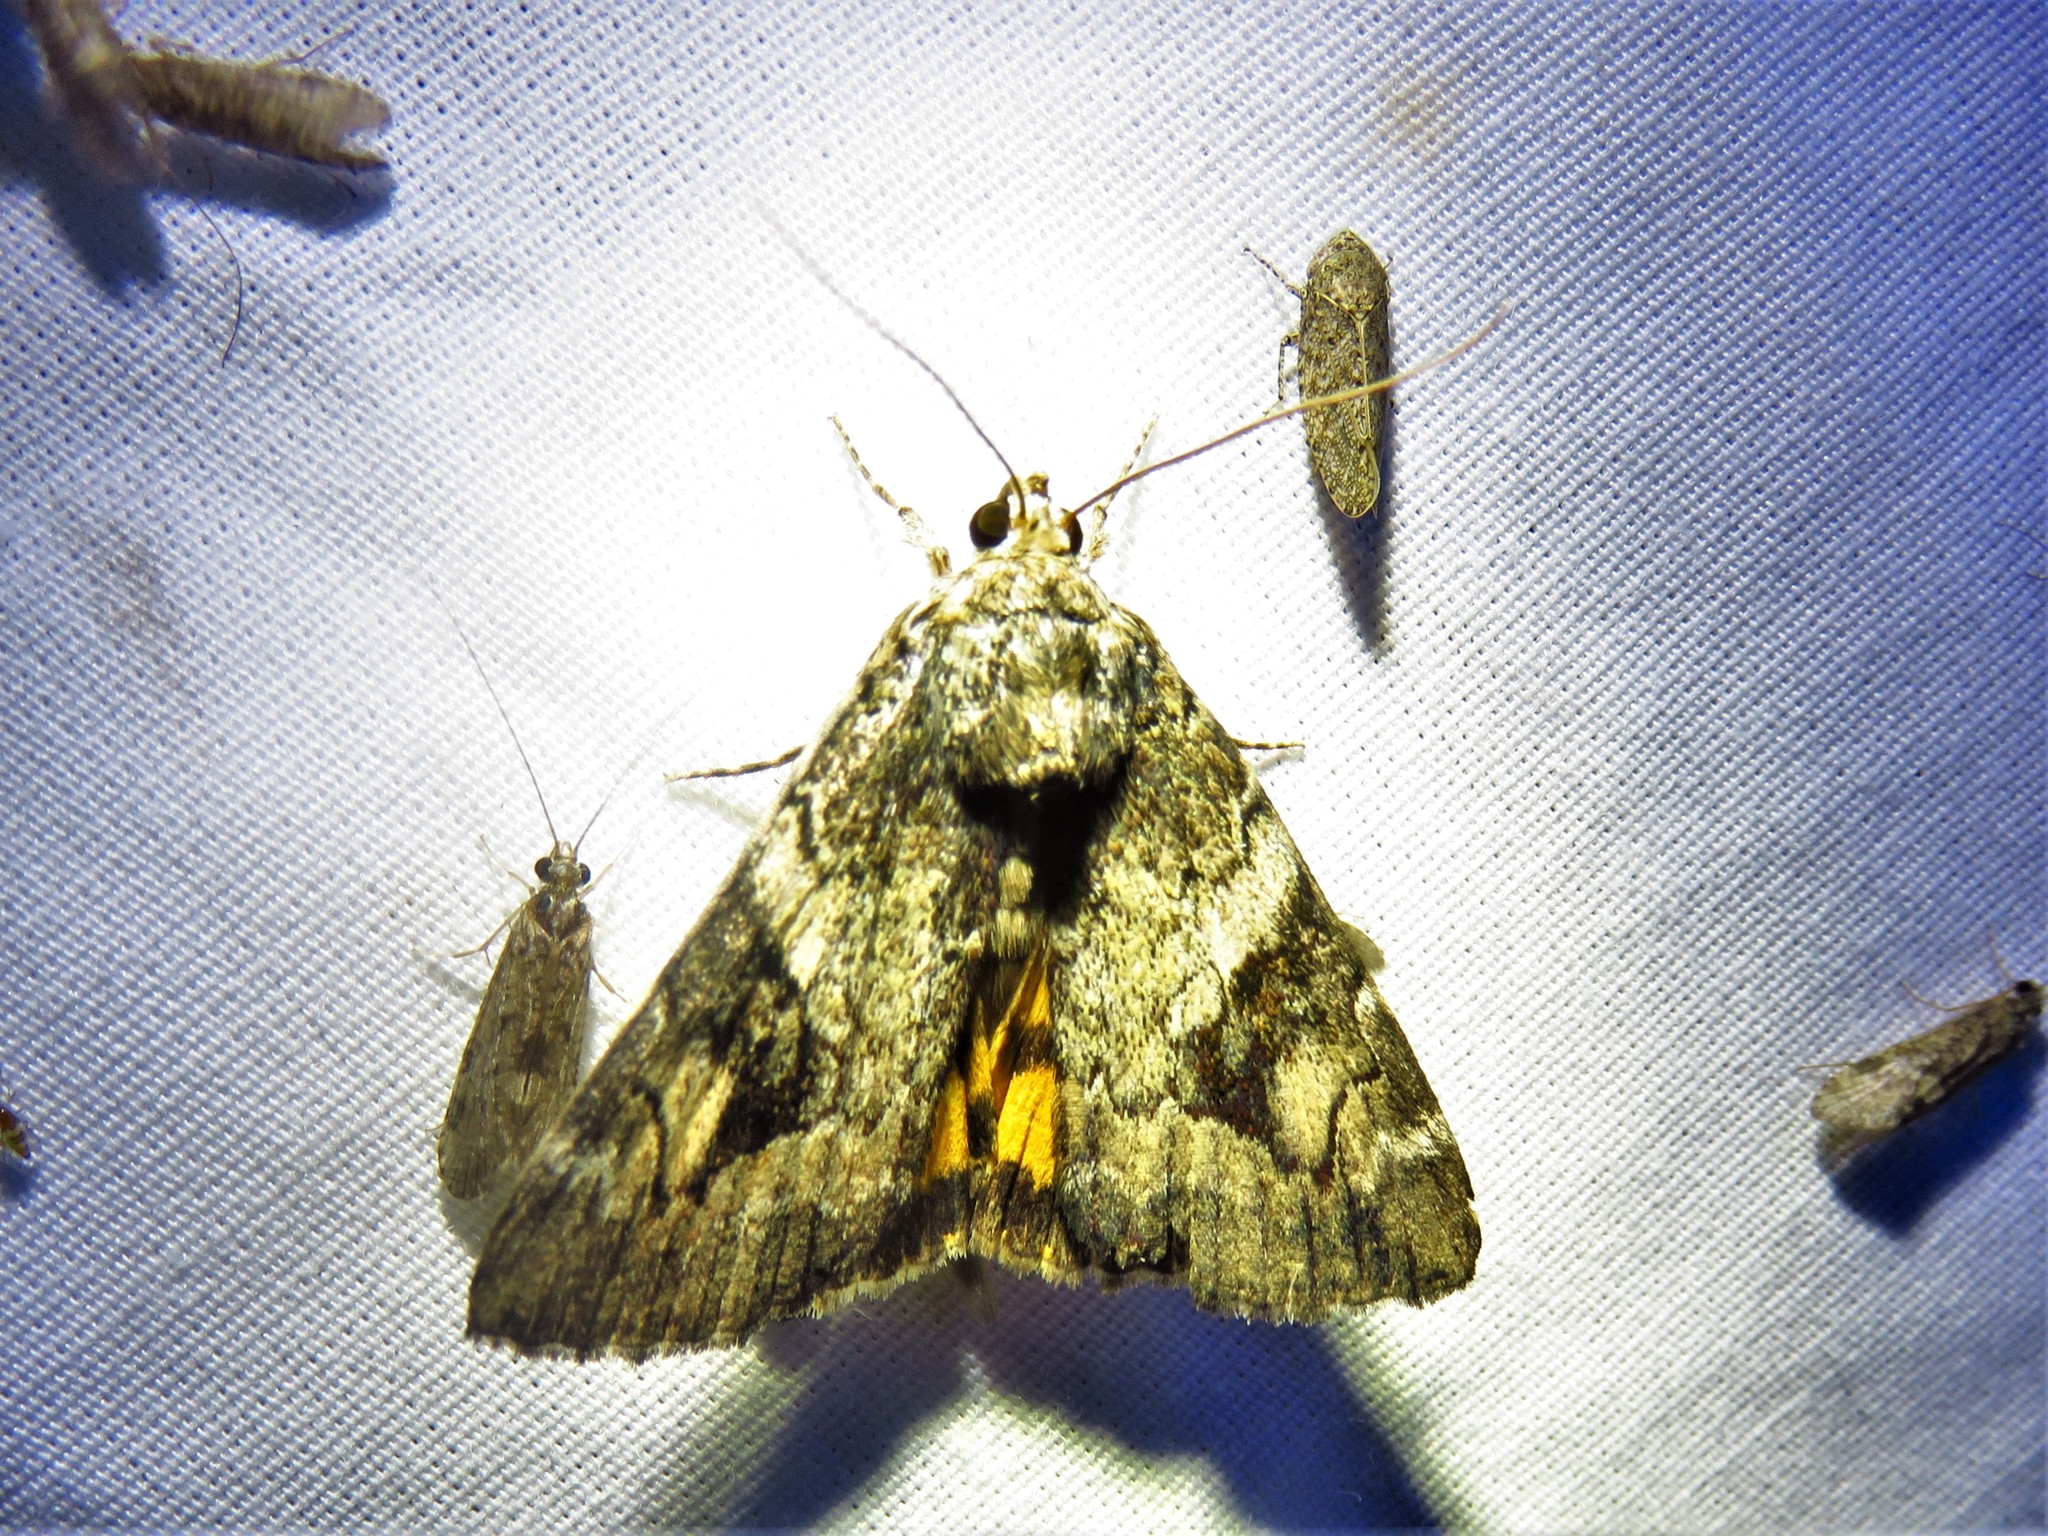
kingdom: Animalia
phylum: Arthropoda
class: Insecta
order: Lepidoptera
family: Erebidae
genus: Catocala
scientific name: Catocala micronympha
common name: Little nymph underwing
